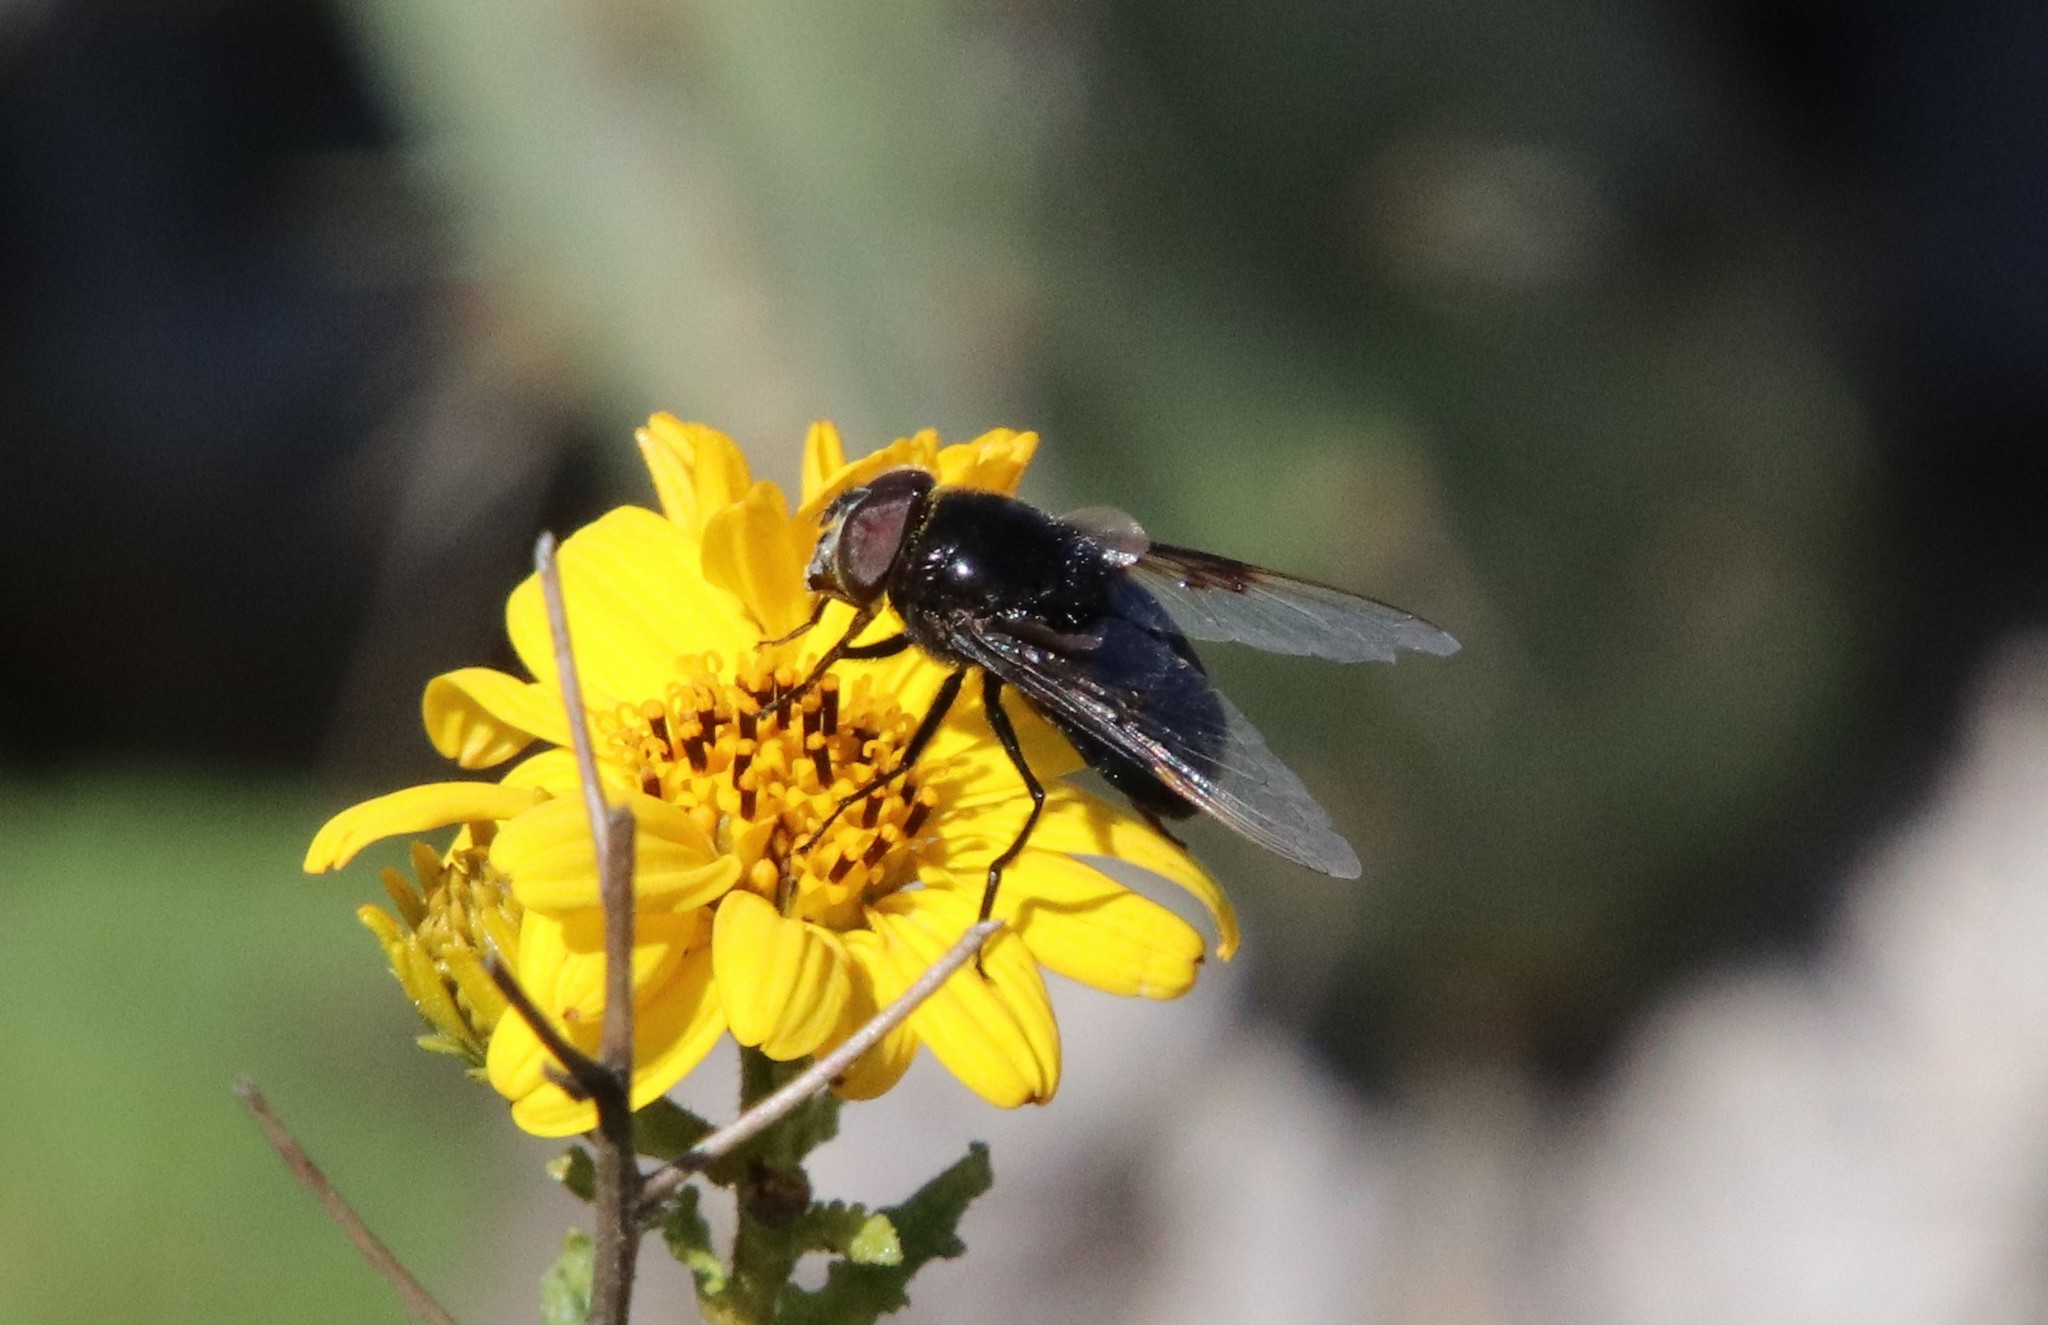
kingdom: Animalia
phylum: Arthropoda
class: Insecta
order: Diptera
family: Syrphidae
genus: Copestylum
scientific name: Copestylum violaceum
